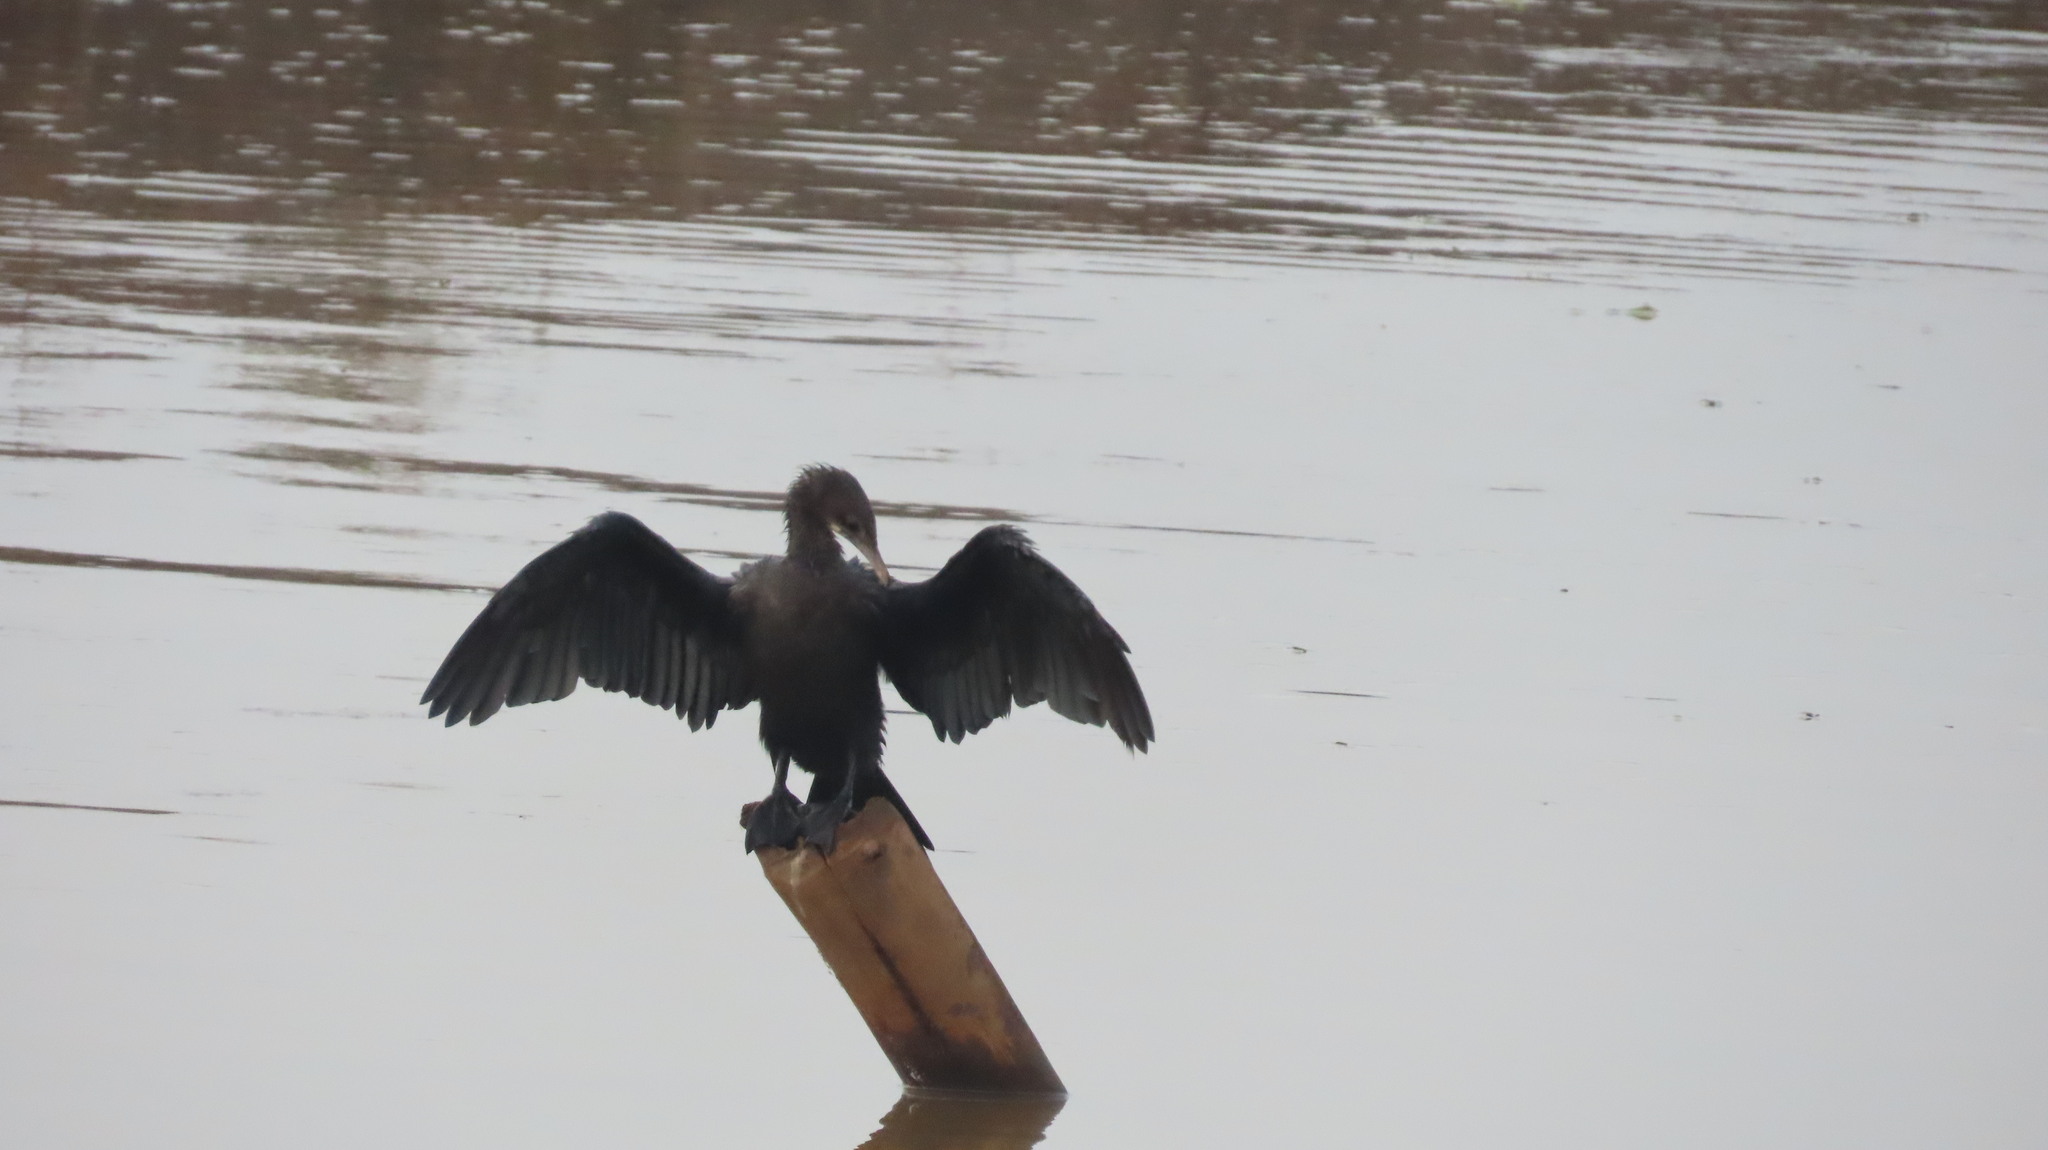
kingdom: Animalia
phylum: Chordata
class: Aves
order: Suliformes
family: Phalacrocoracidae
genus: Microcarbo
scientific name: Microcarbo niger
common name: Little cormorant
